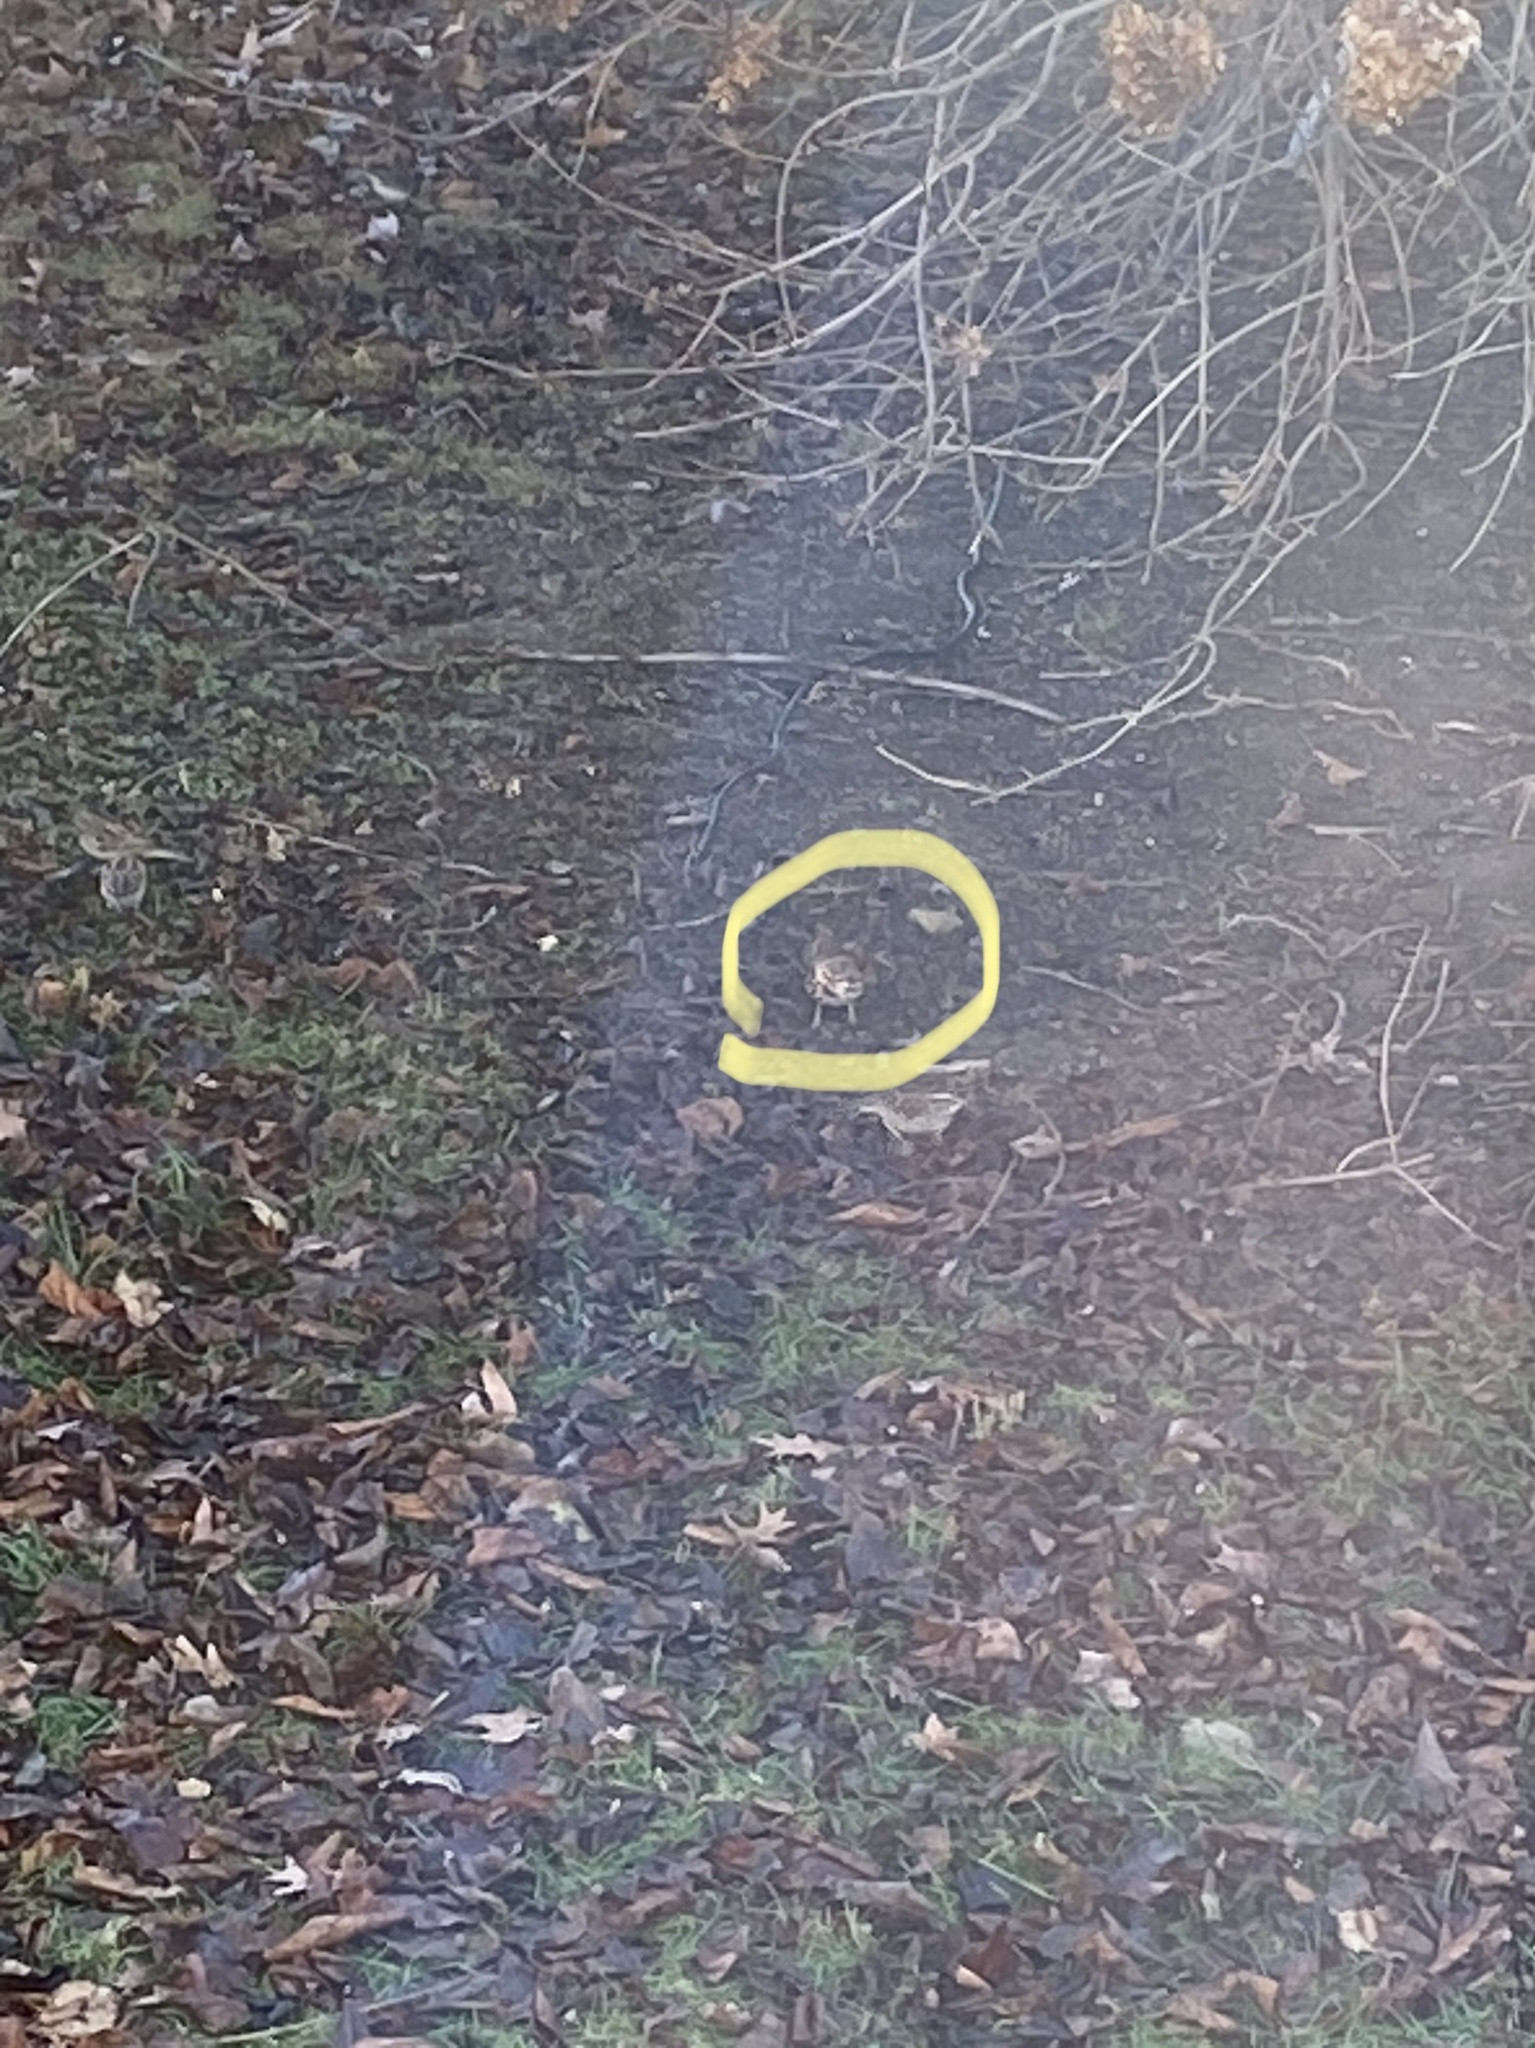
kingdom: Animalia
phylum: Chordata
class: Aves
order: Passeriformes
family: Passerellidae
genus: Passerella
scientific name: Passerella iliaca
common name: Fox sparrow
